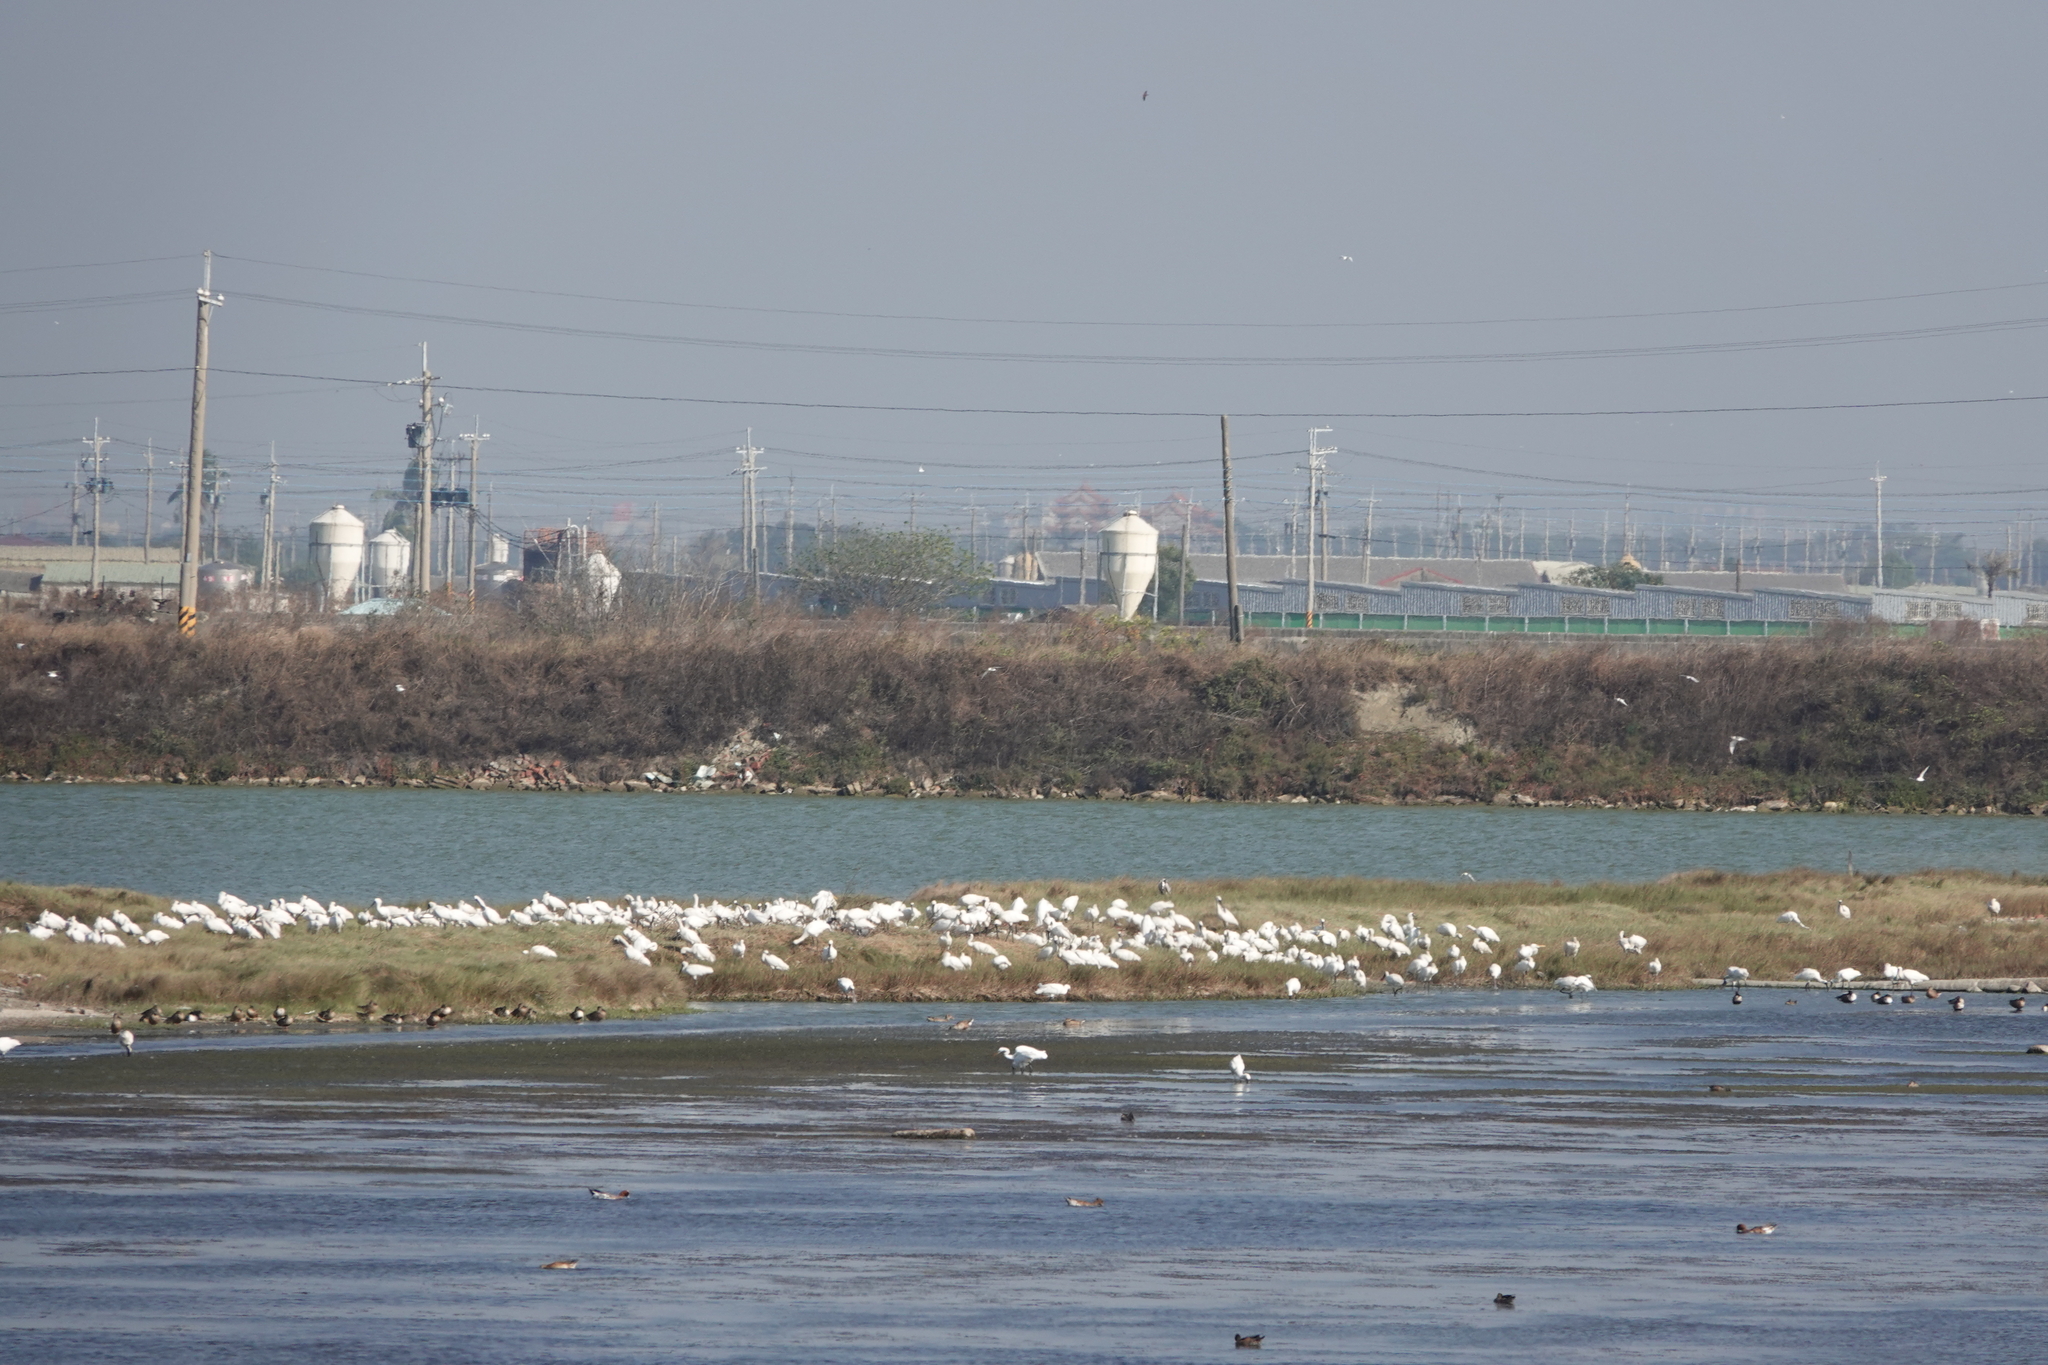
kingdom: Animalia
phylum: Chordata
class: Aves
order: Pelecaniformes
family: Threskiornithidae
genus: Platalea
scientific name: Platalea minor
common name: Black-faced spoonbill
